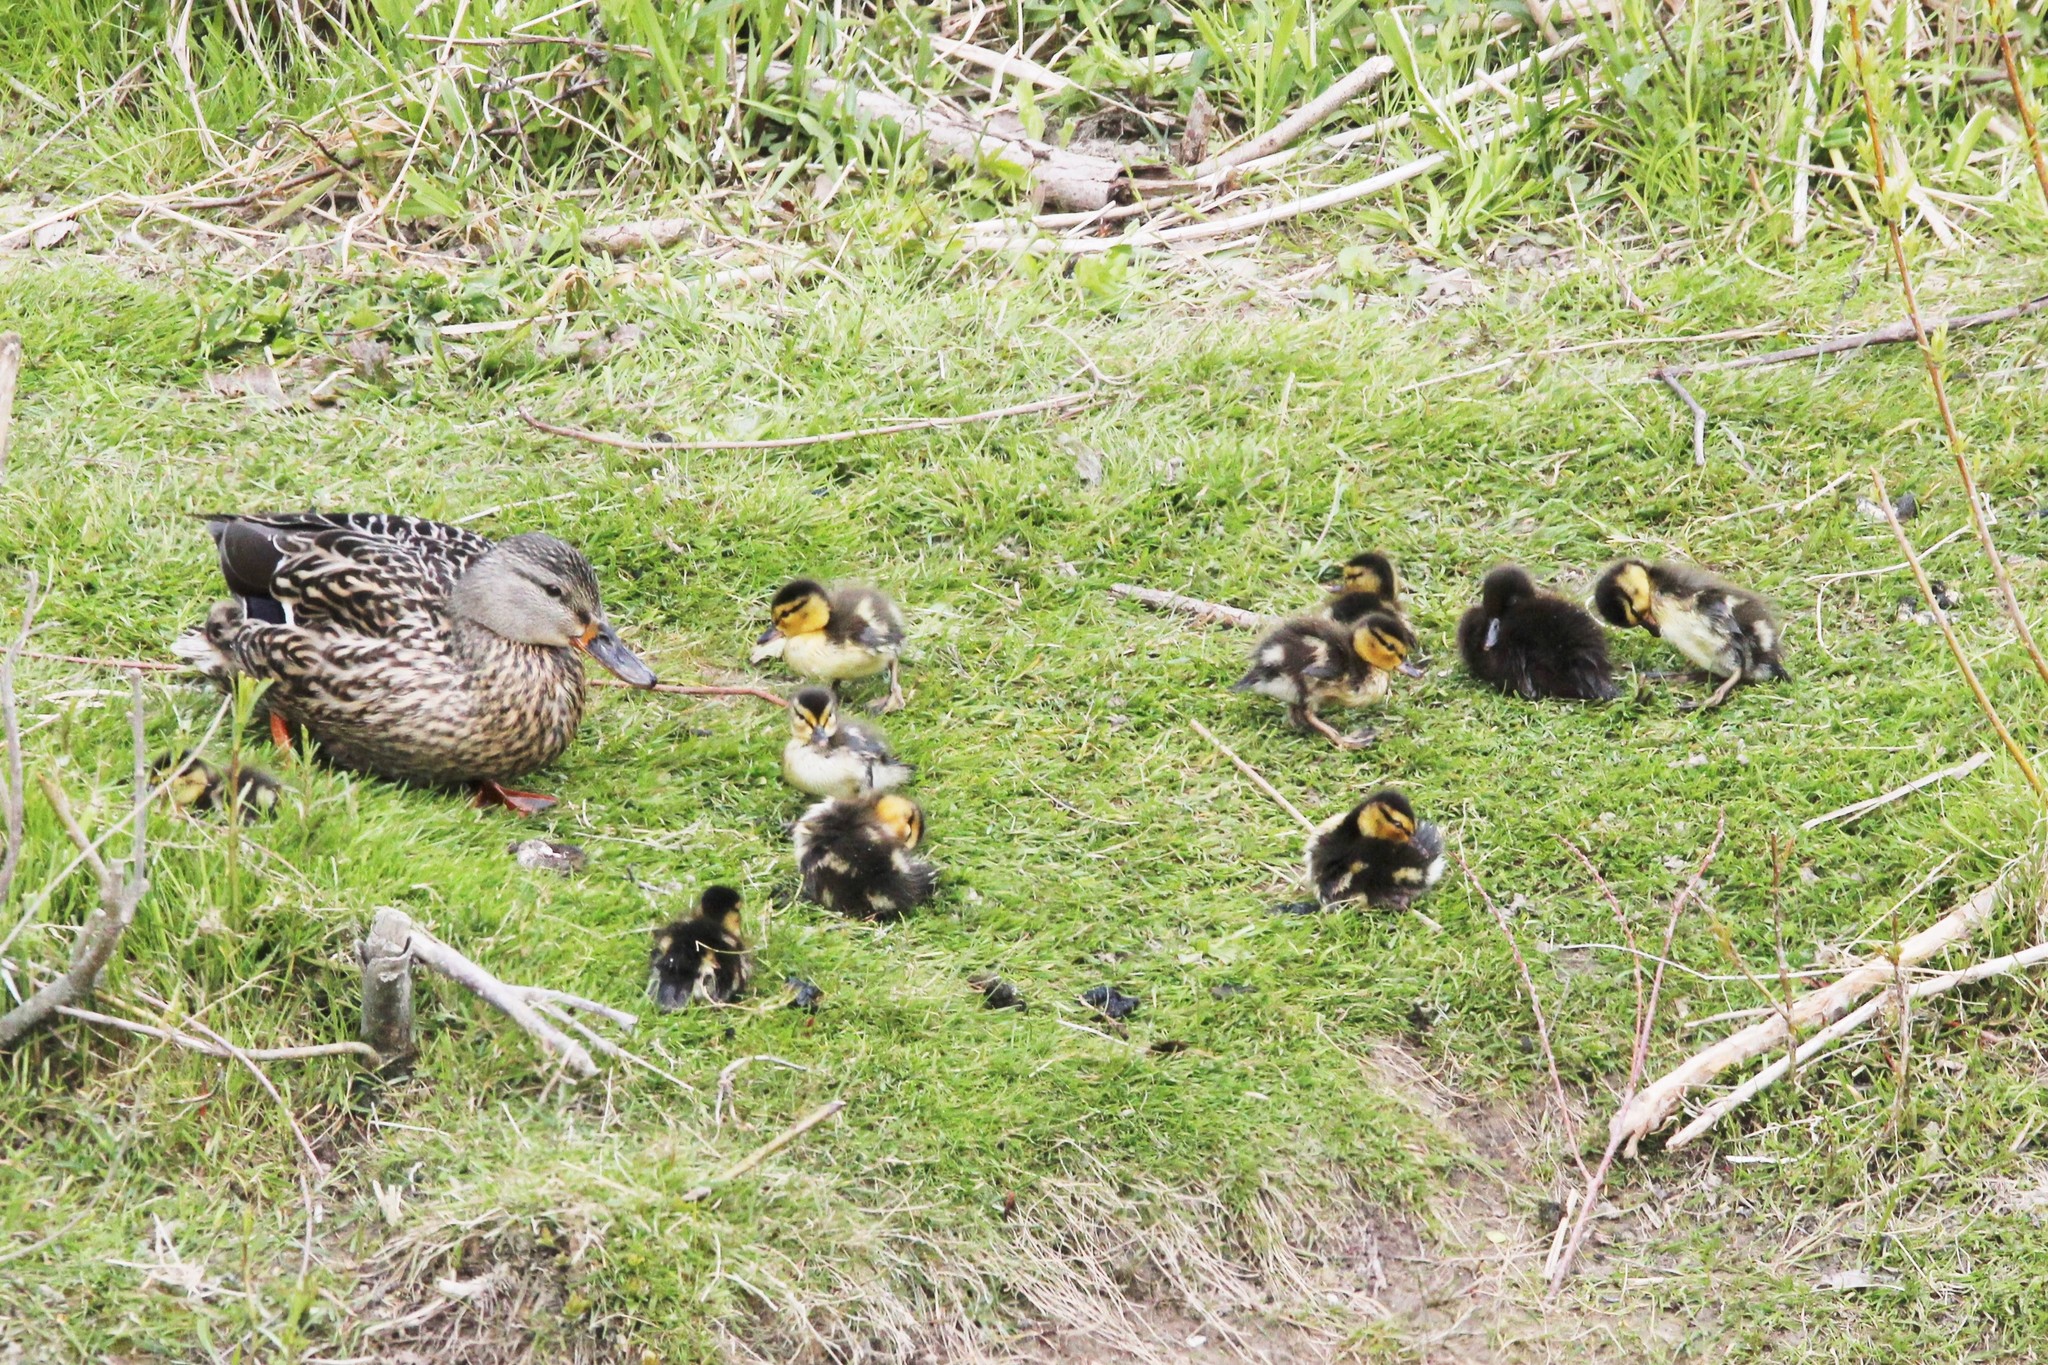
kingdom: Animalia
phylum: Chordata
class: Aves
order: Anseriformes
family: Anatidae
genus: Anas
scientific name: Anas platyrhynchos
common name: Mallard
